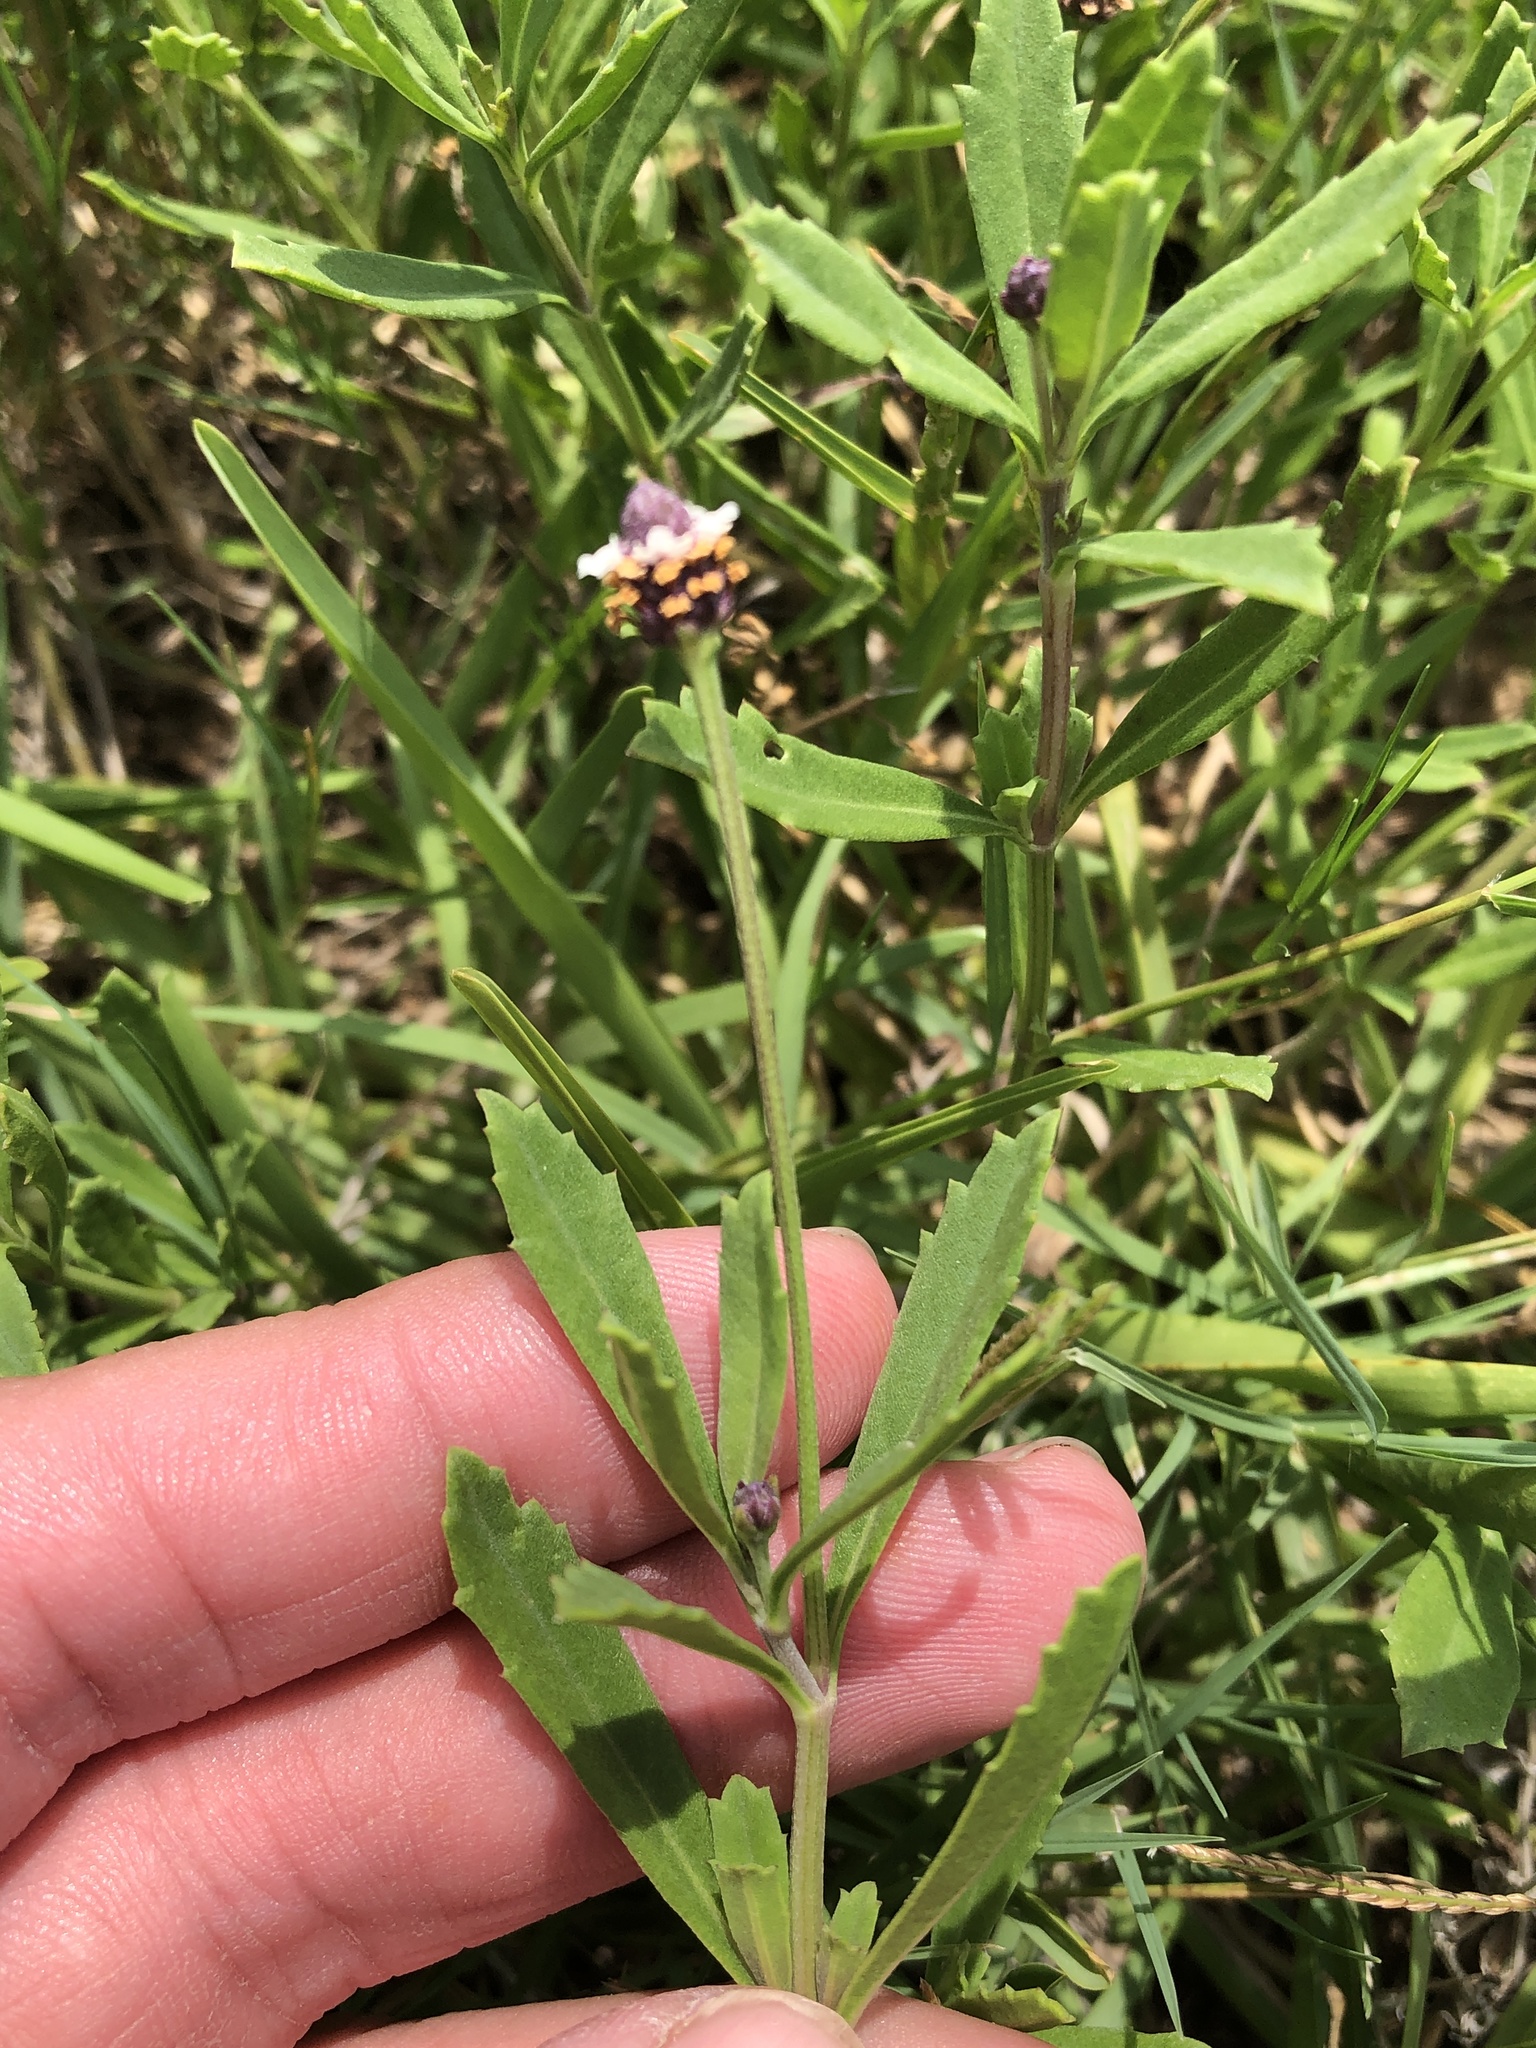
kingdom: Plantae
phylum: Tracheophyta
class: Magnoliopsida
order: Lamiales
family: Verbenaceae
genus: Phyla
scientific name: Phyla nodiflora
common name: Frogfruit
